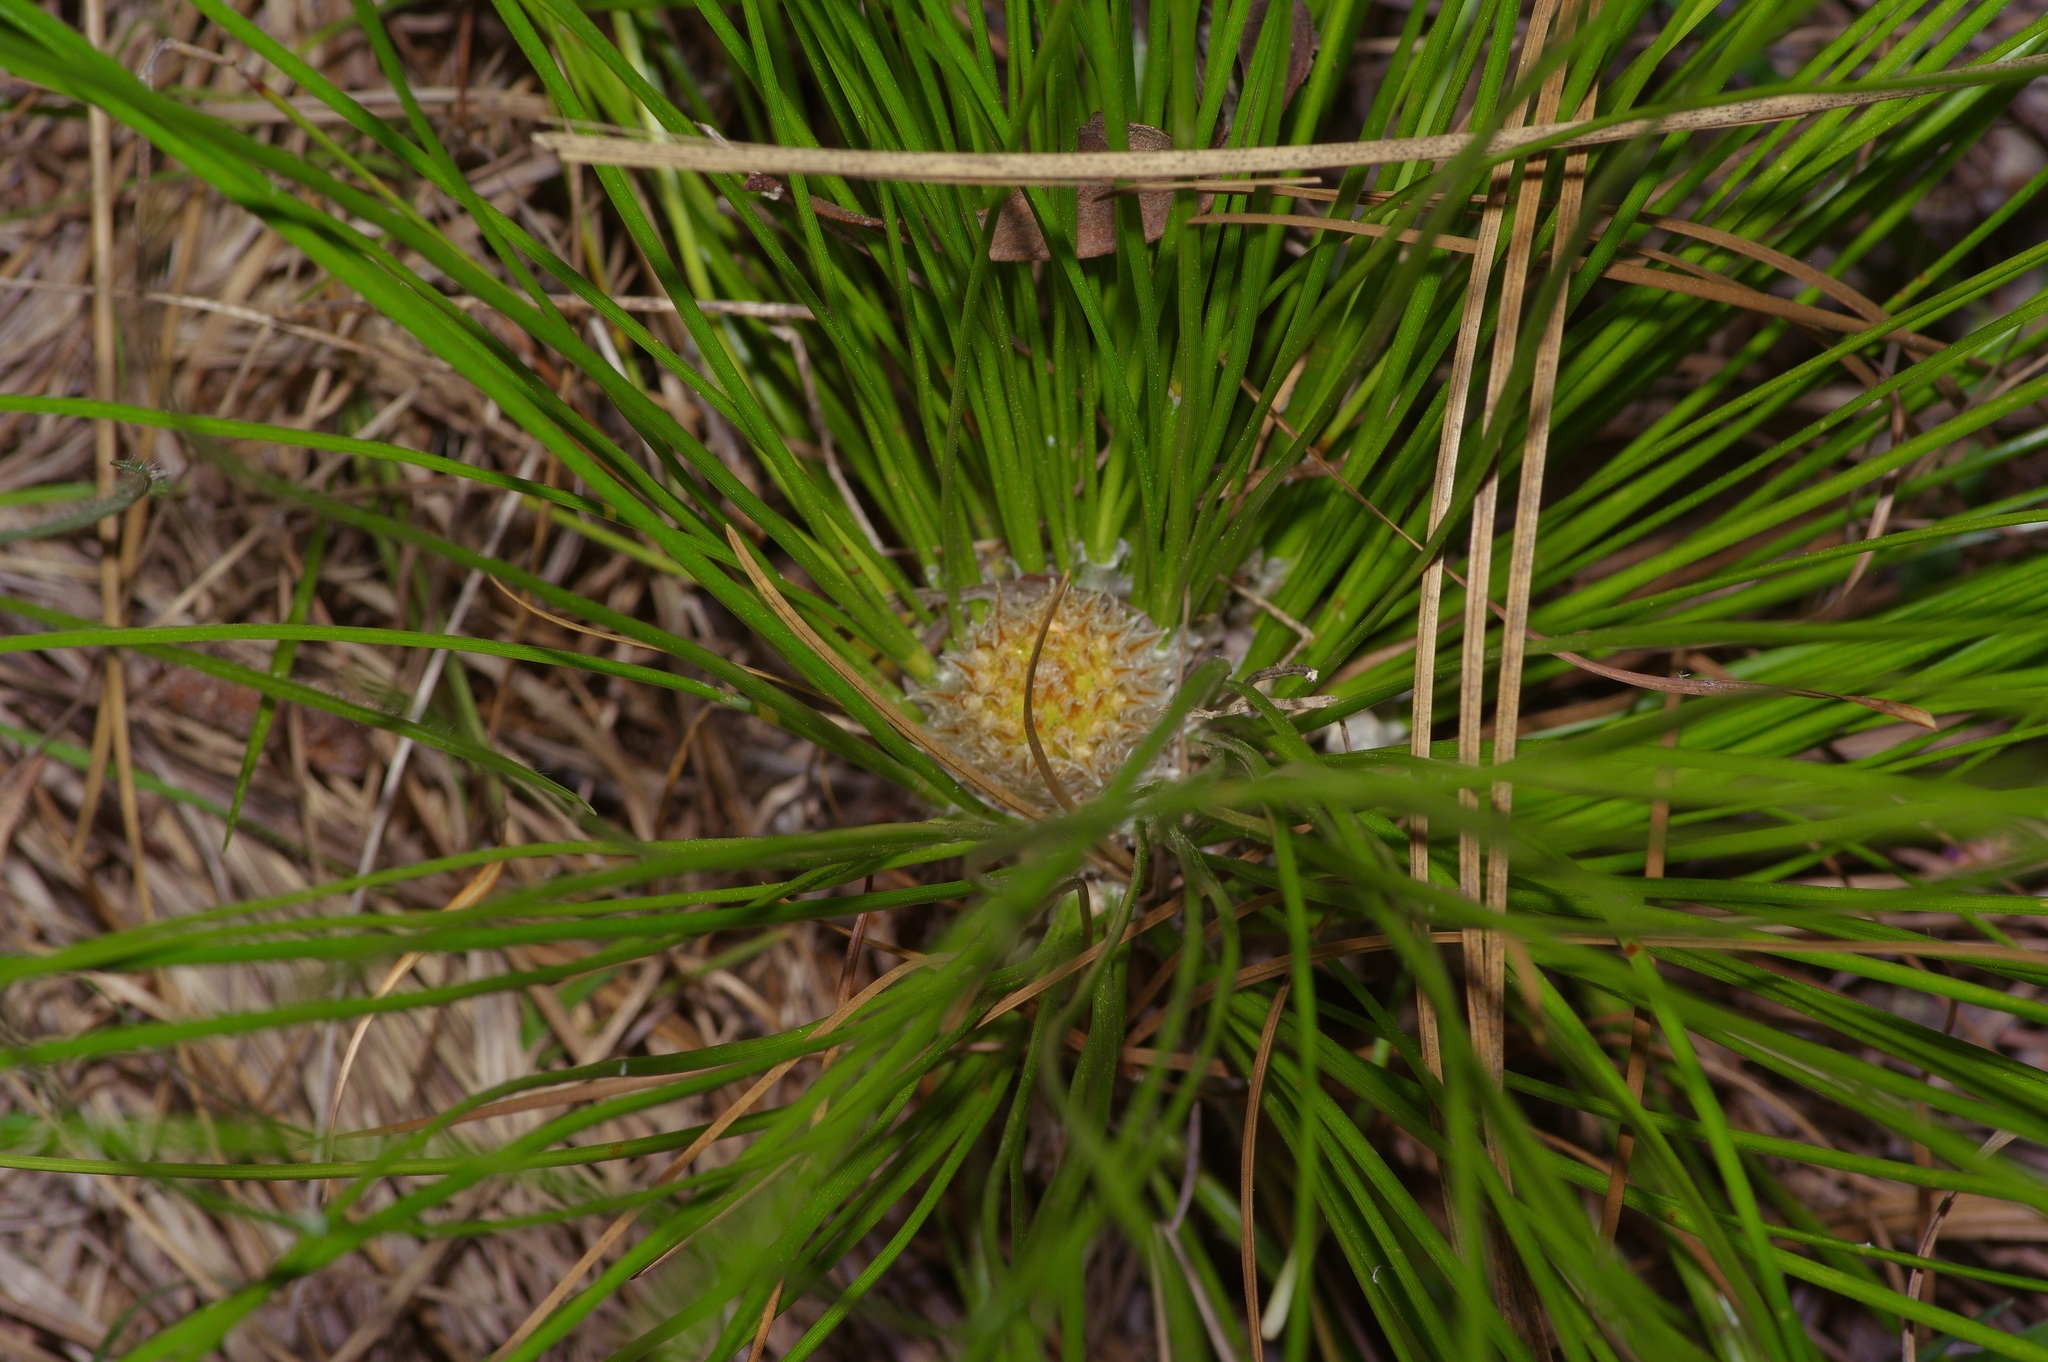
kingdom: Plantae
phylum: Tracheophyta
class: Pinopsida
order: Pinales
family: Pinaceae
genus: Pinus
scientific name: Pinus palustris
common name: Longleaf pine
